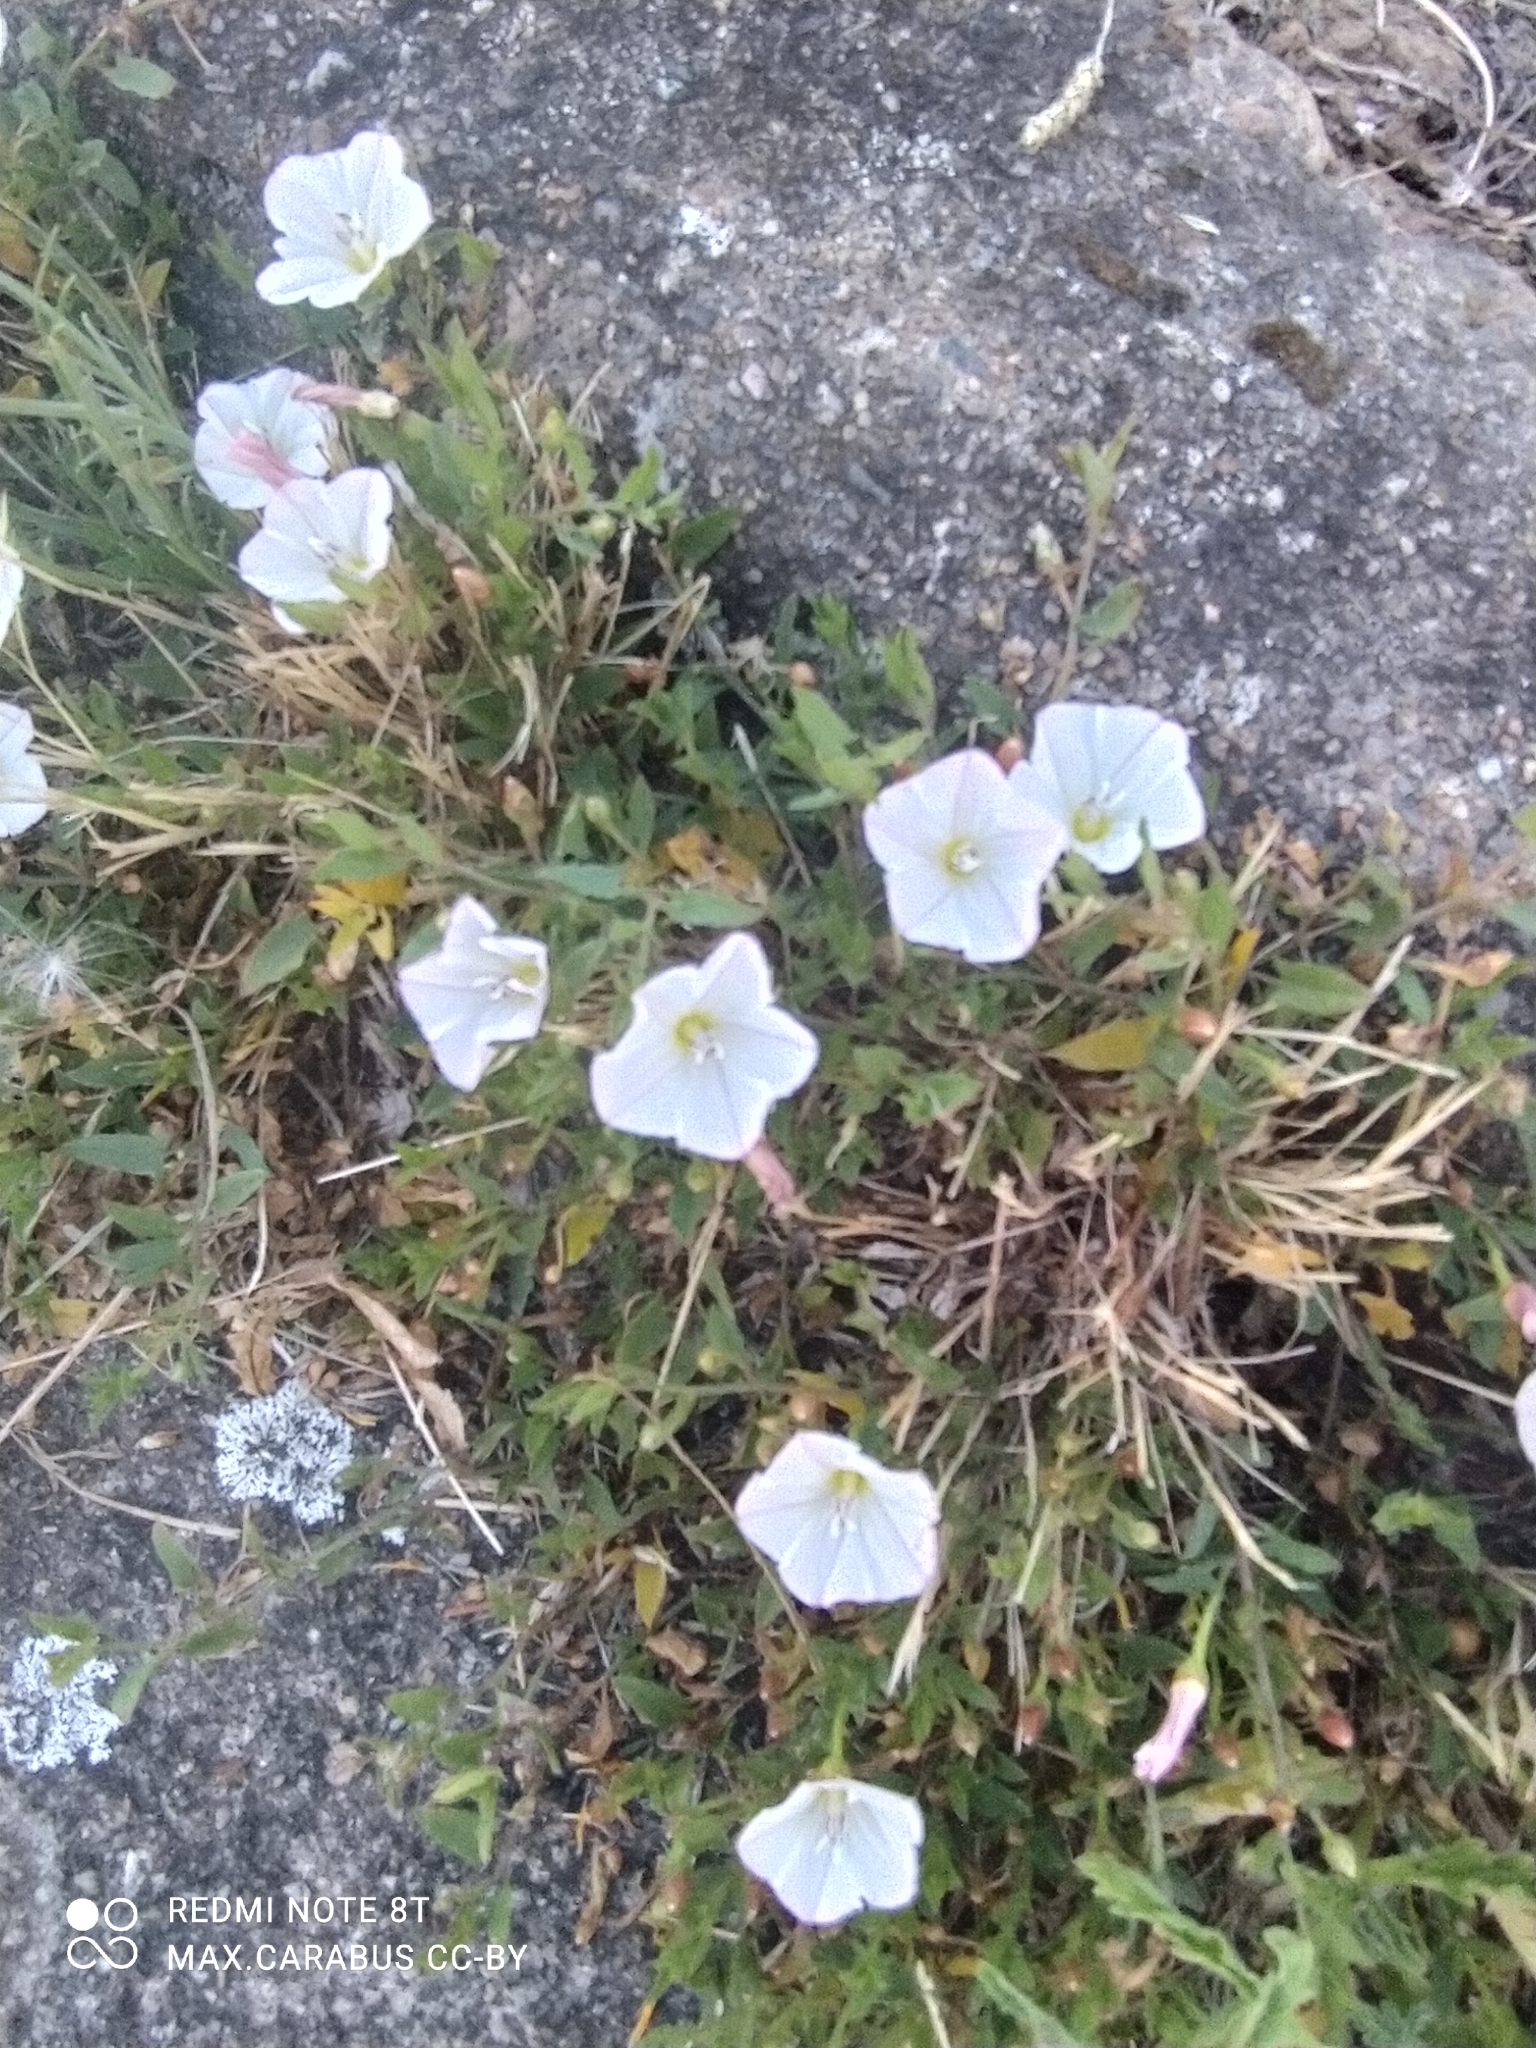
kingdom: Plantae
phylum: Tracheophyta
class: Magnoliopsida
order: Solanales
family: Convolvulaceae
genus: Convolvulus
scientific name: Convolvulus arvensis
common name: Field bindweed
